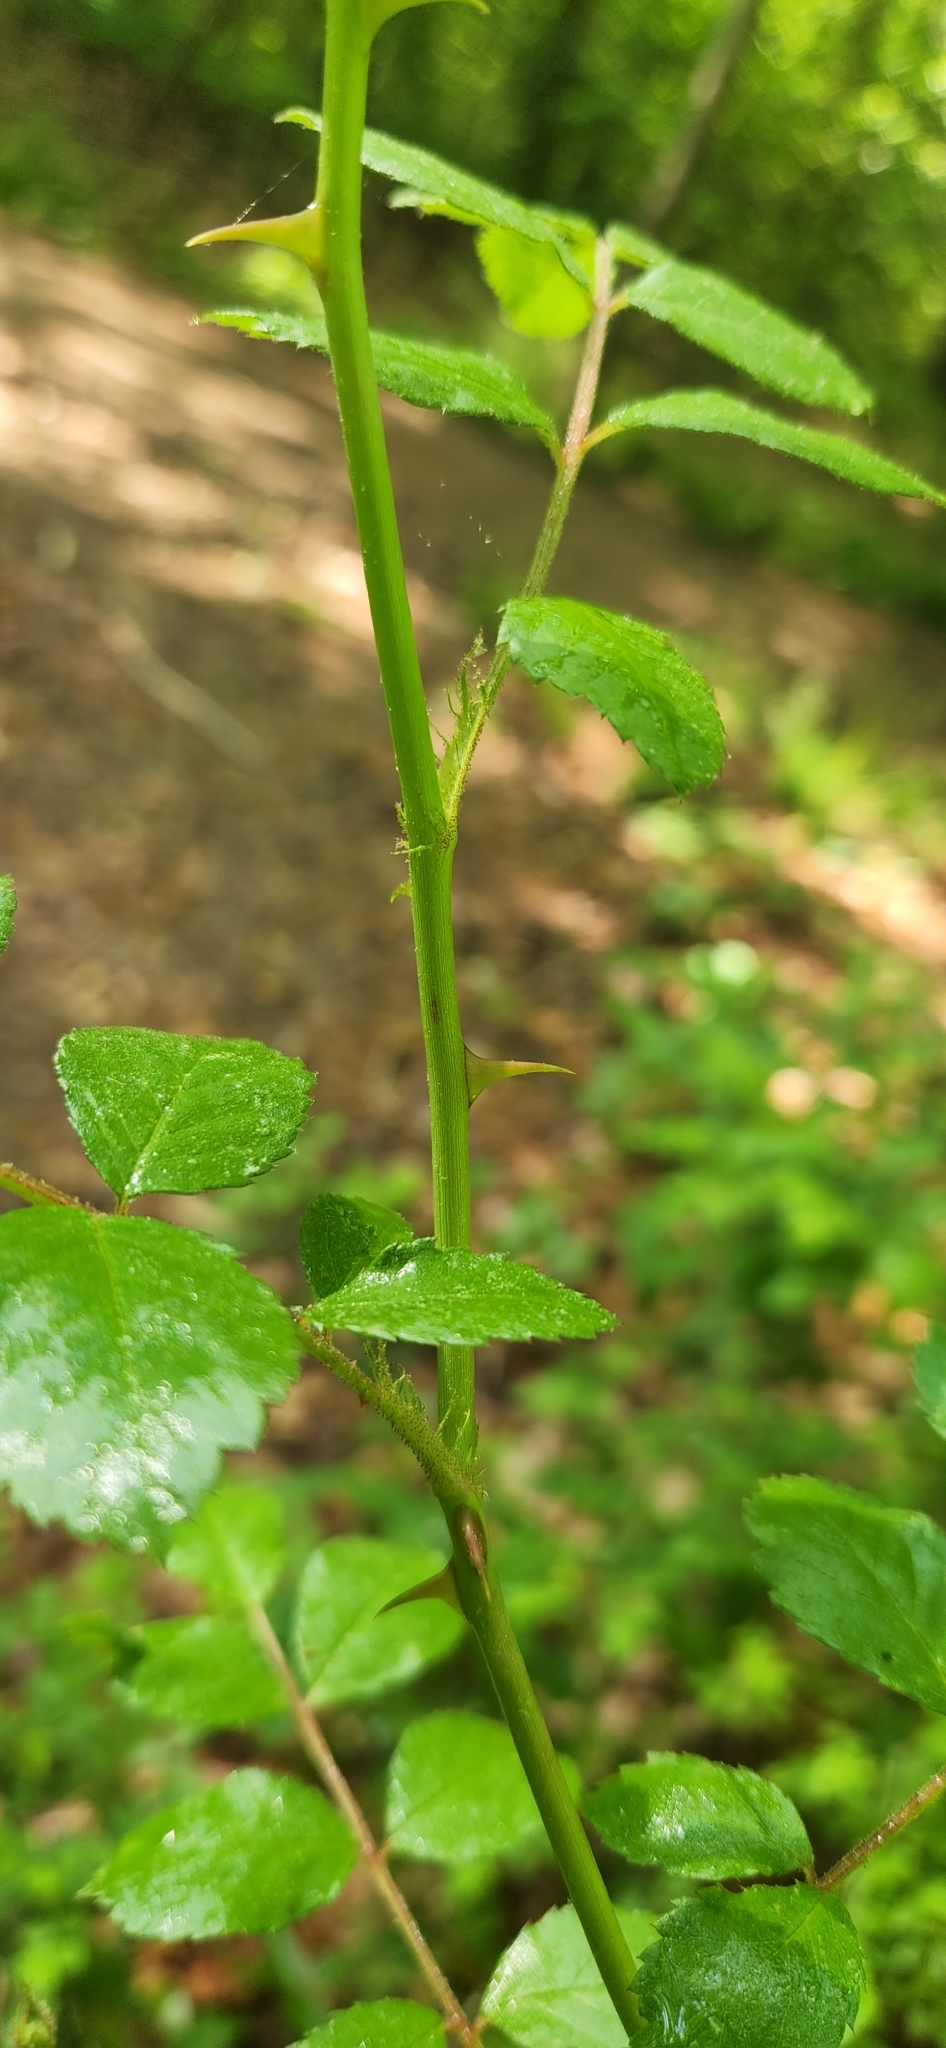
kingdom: Plantae
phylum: Tracheophyta
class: Magnoliopsida
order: Rosales
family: Rosaceae
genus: Rosa
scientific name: Rosa multiflora
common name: Multiflora rose
